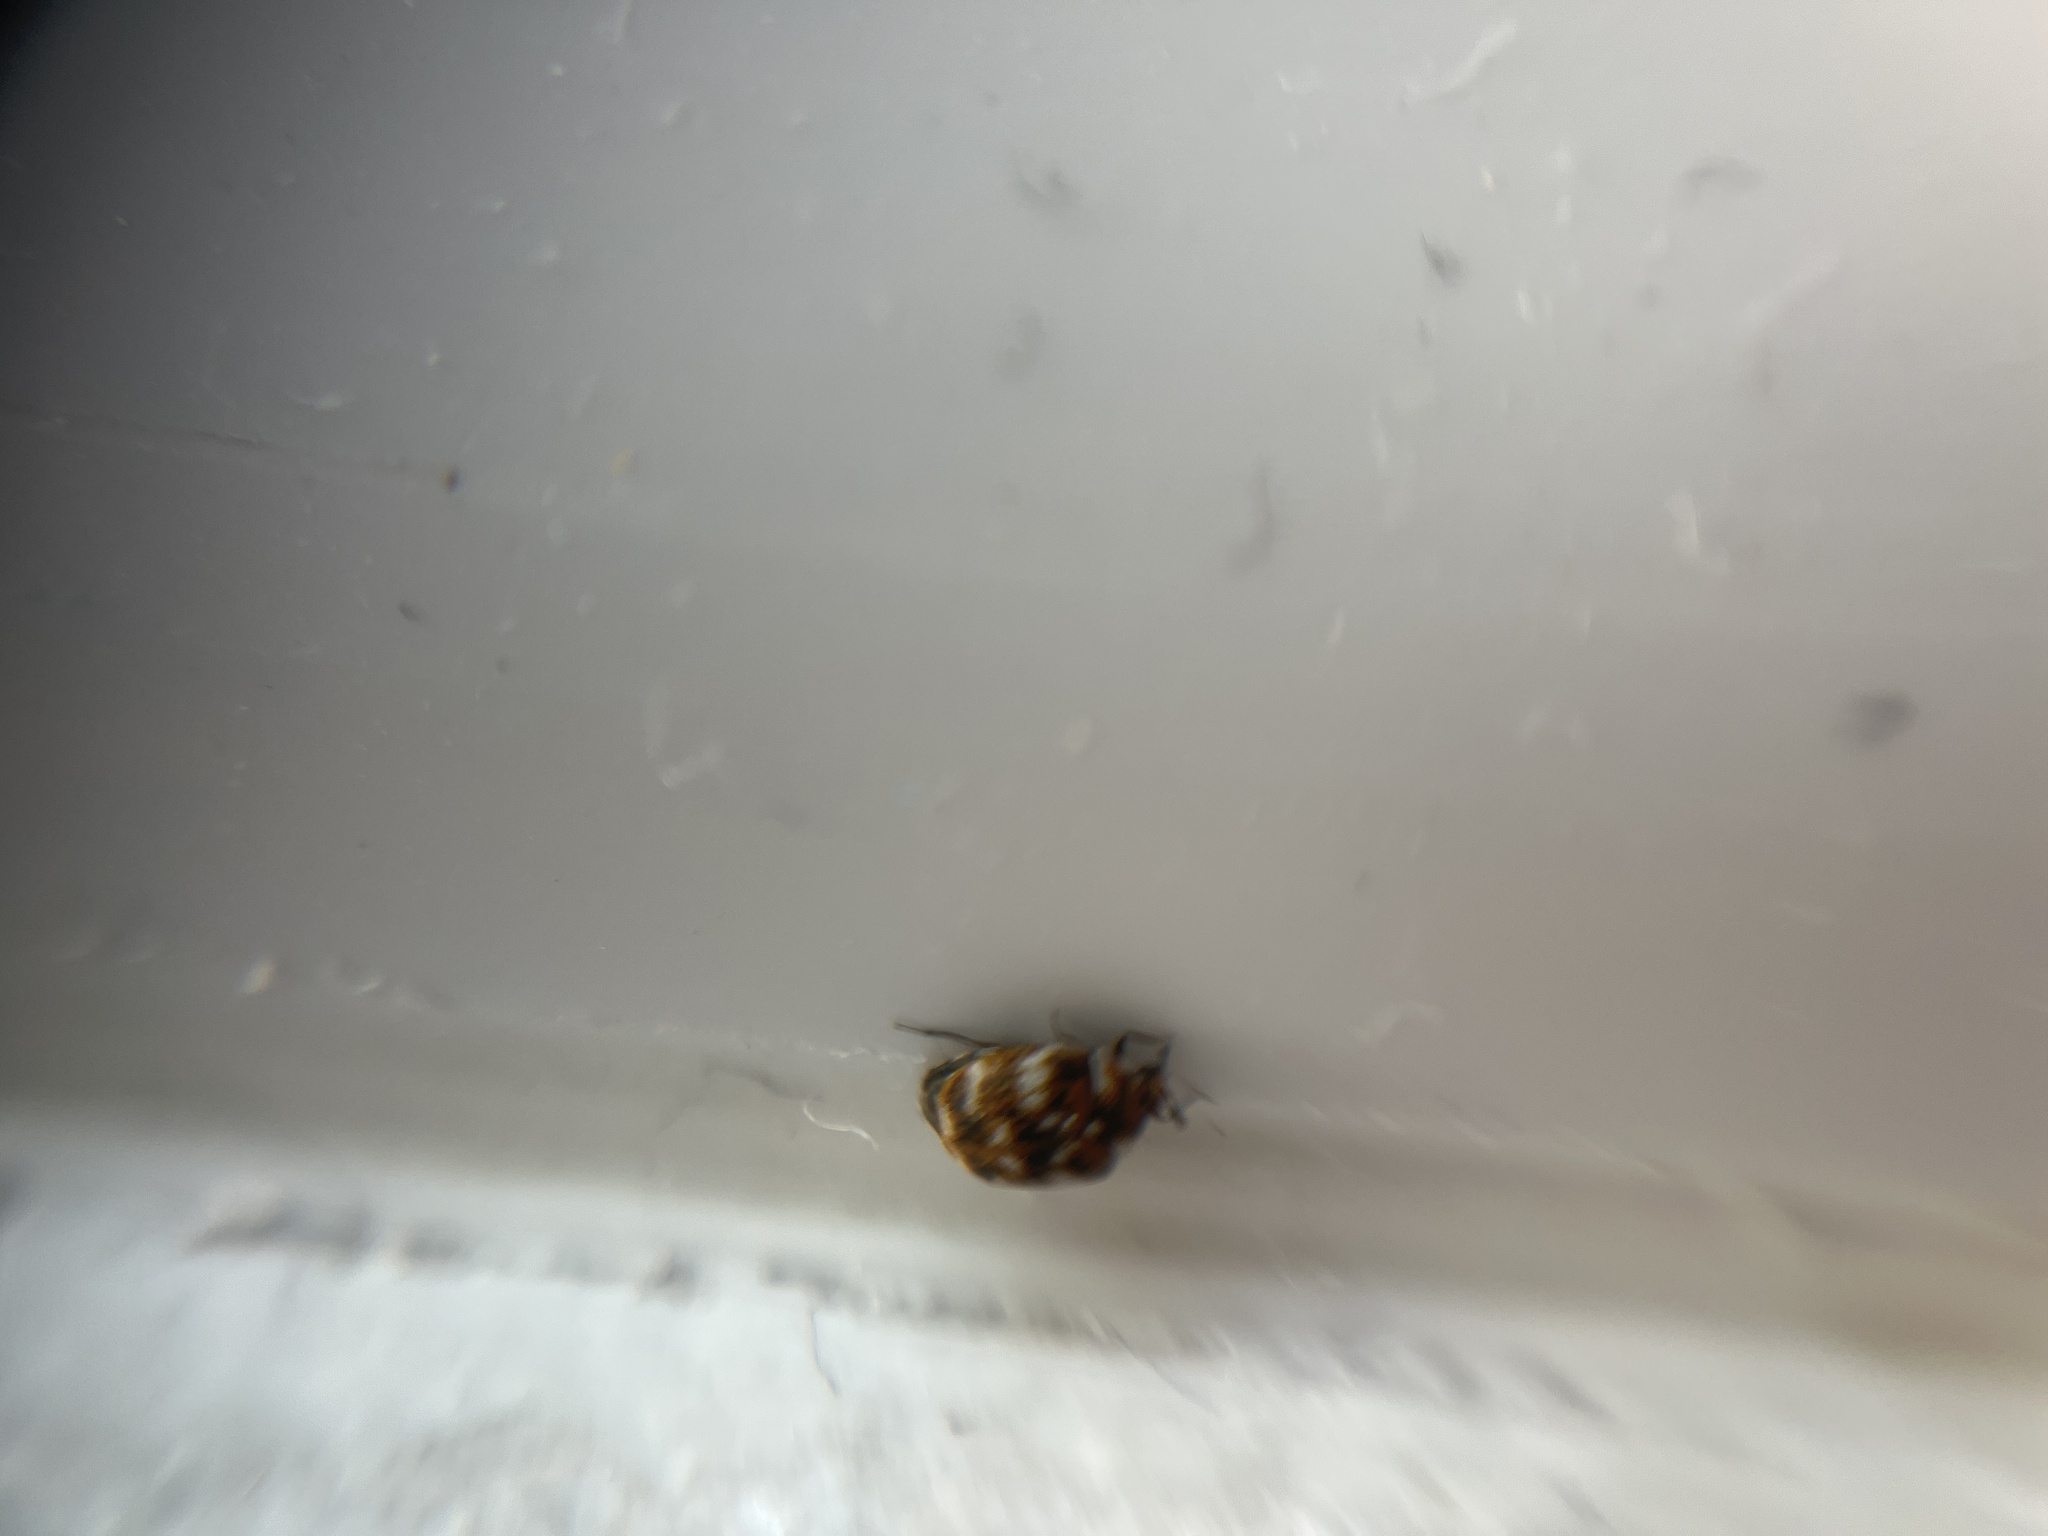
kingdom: Animalia
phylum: Arthropoda
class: Insecta
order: Coleoptera
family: Dermestidae
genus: Anthrenus
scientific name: Anthrenus verbasci
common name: Varied carpet beetle
